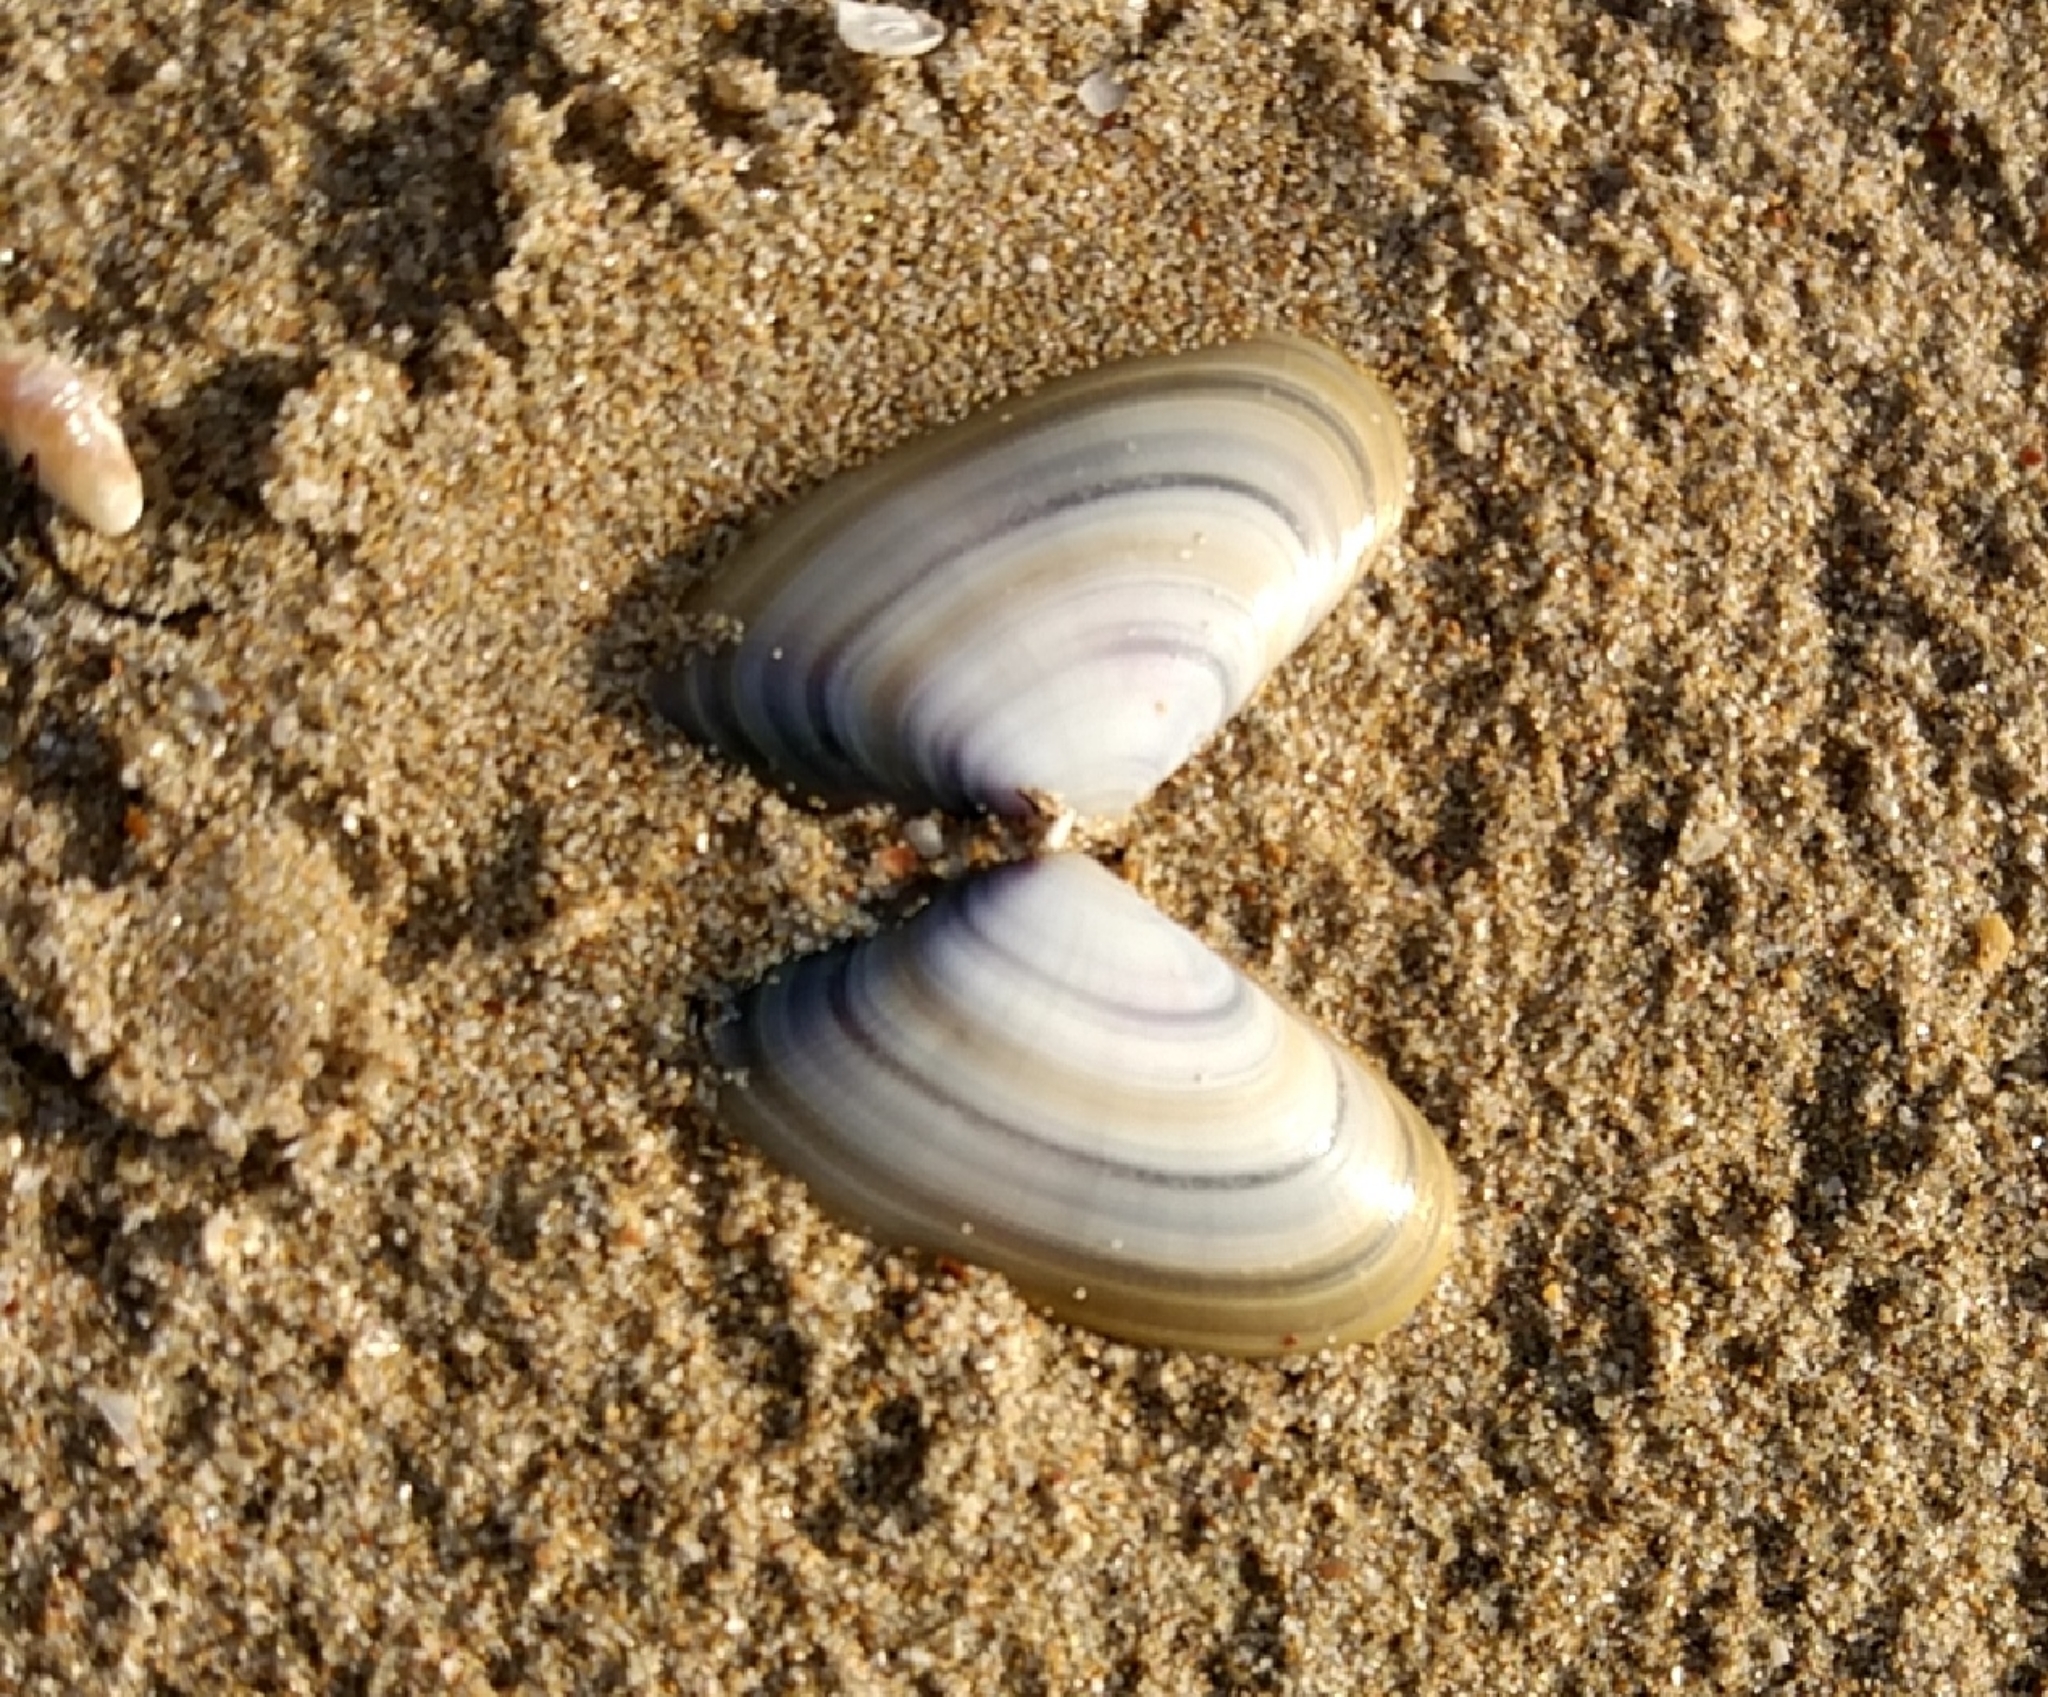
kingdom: Animalia
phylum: Mollusca
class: Bivalvia
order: Cardiida
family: Donacidae
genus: Donax
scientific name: Donax trunculus
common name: Truncate donax
